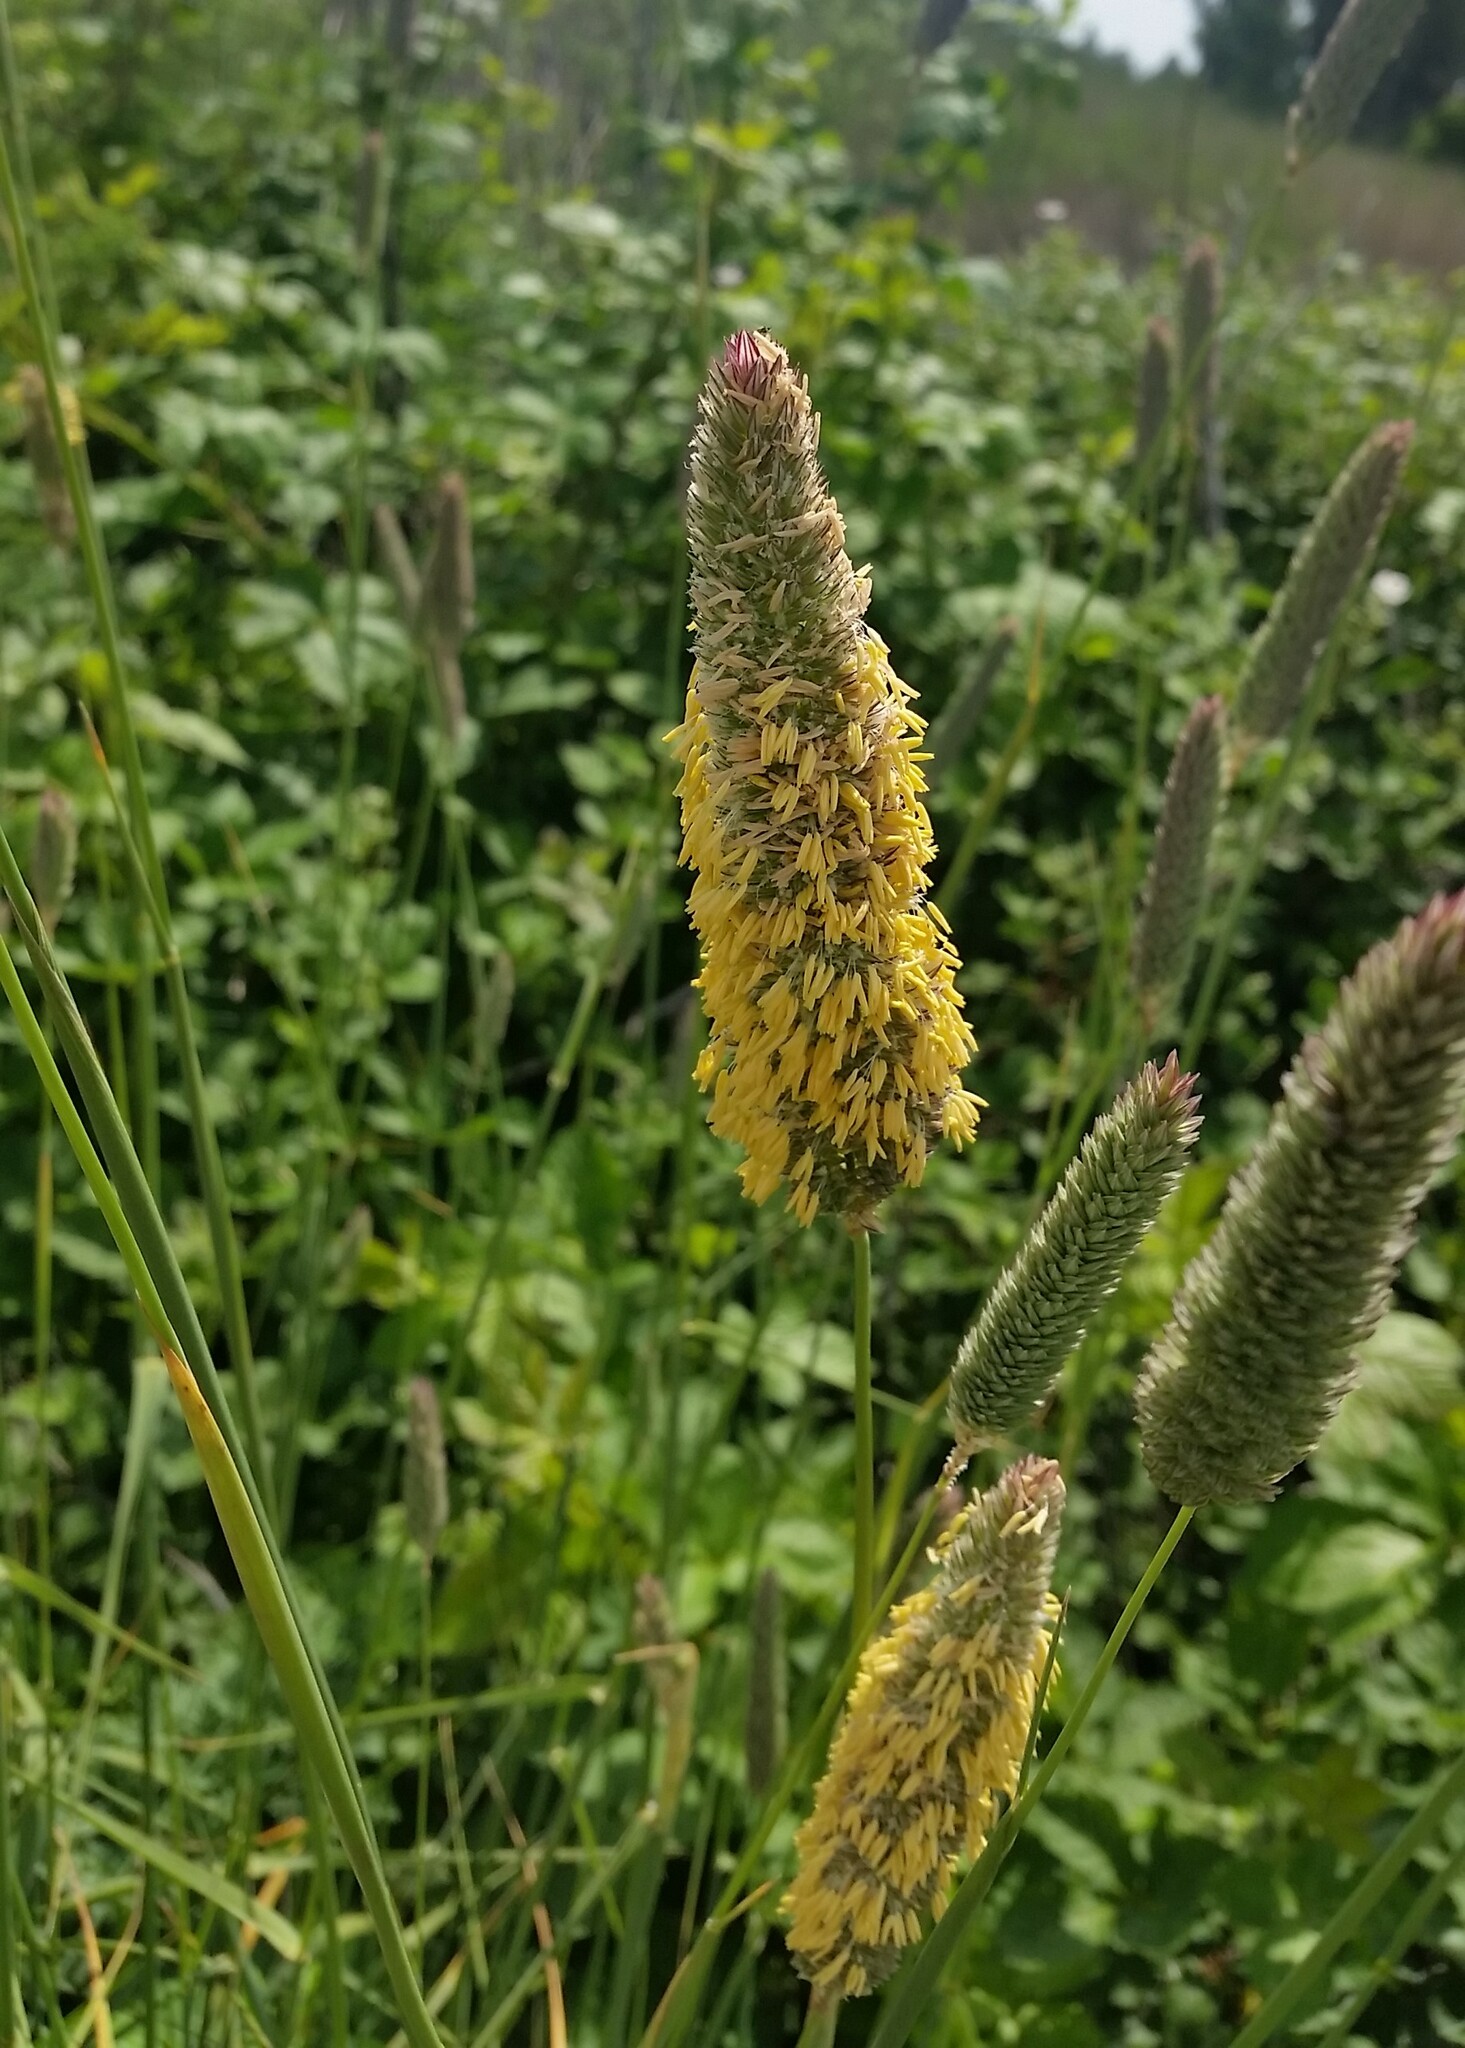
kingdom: Plantae
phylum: Tracheophyta
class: Liliopsida
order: Poales
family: Poaceae
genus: Phalaris
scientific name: Phalaris aquatica
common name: Bulbous canary-grass
